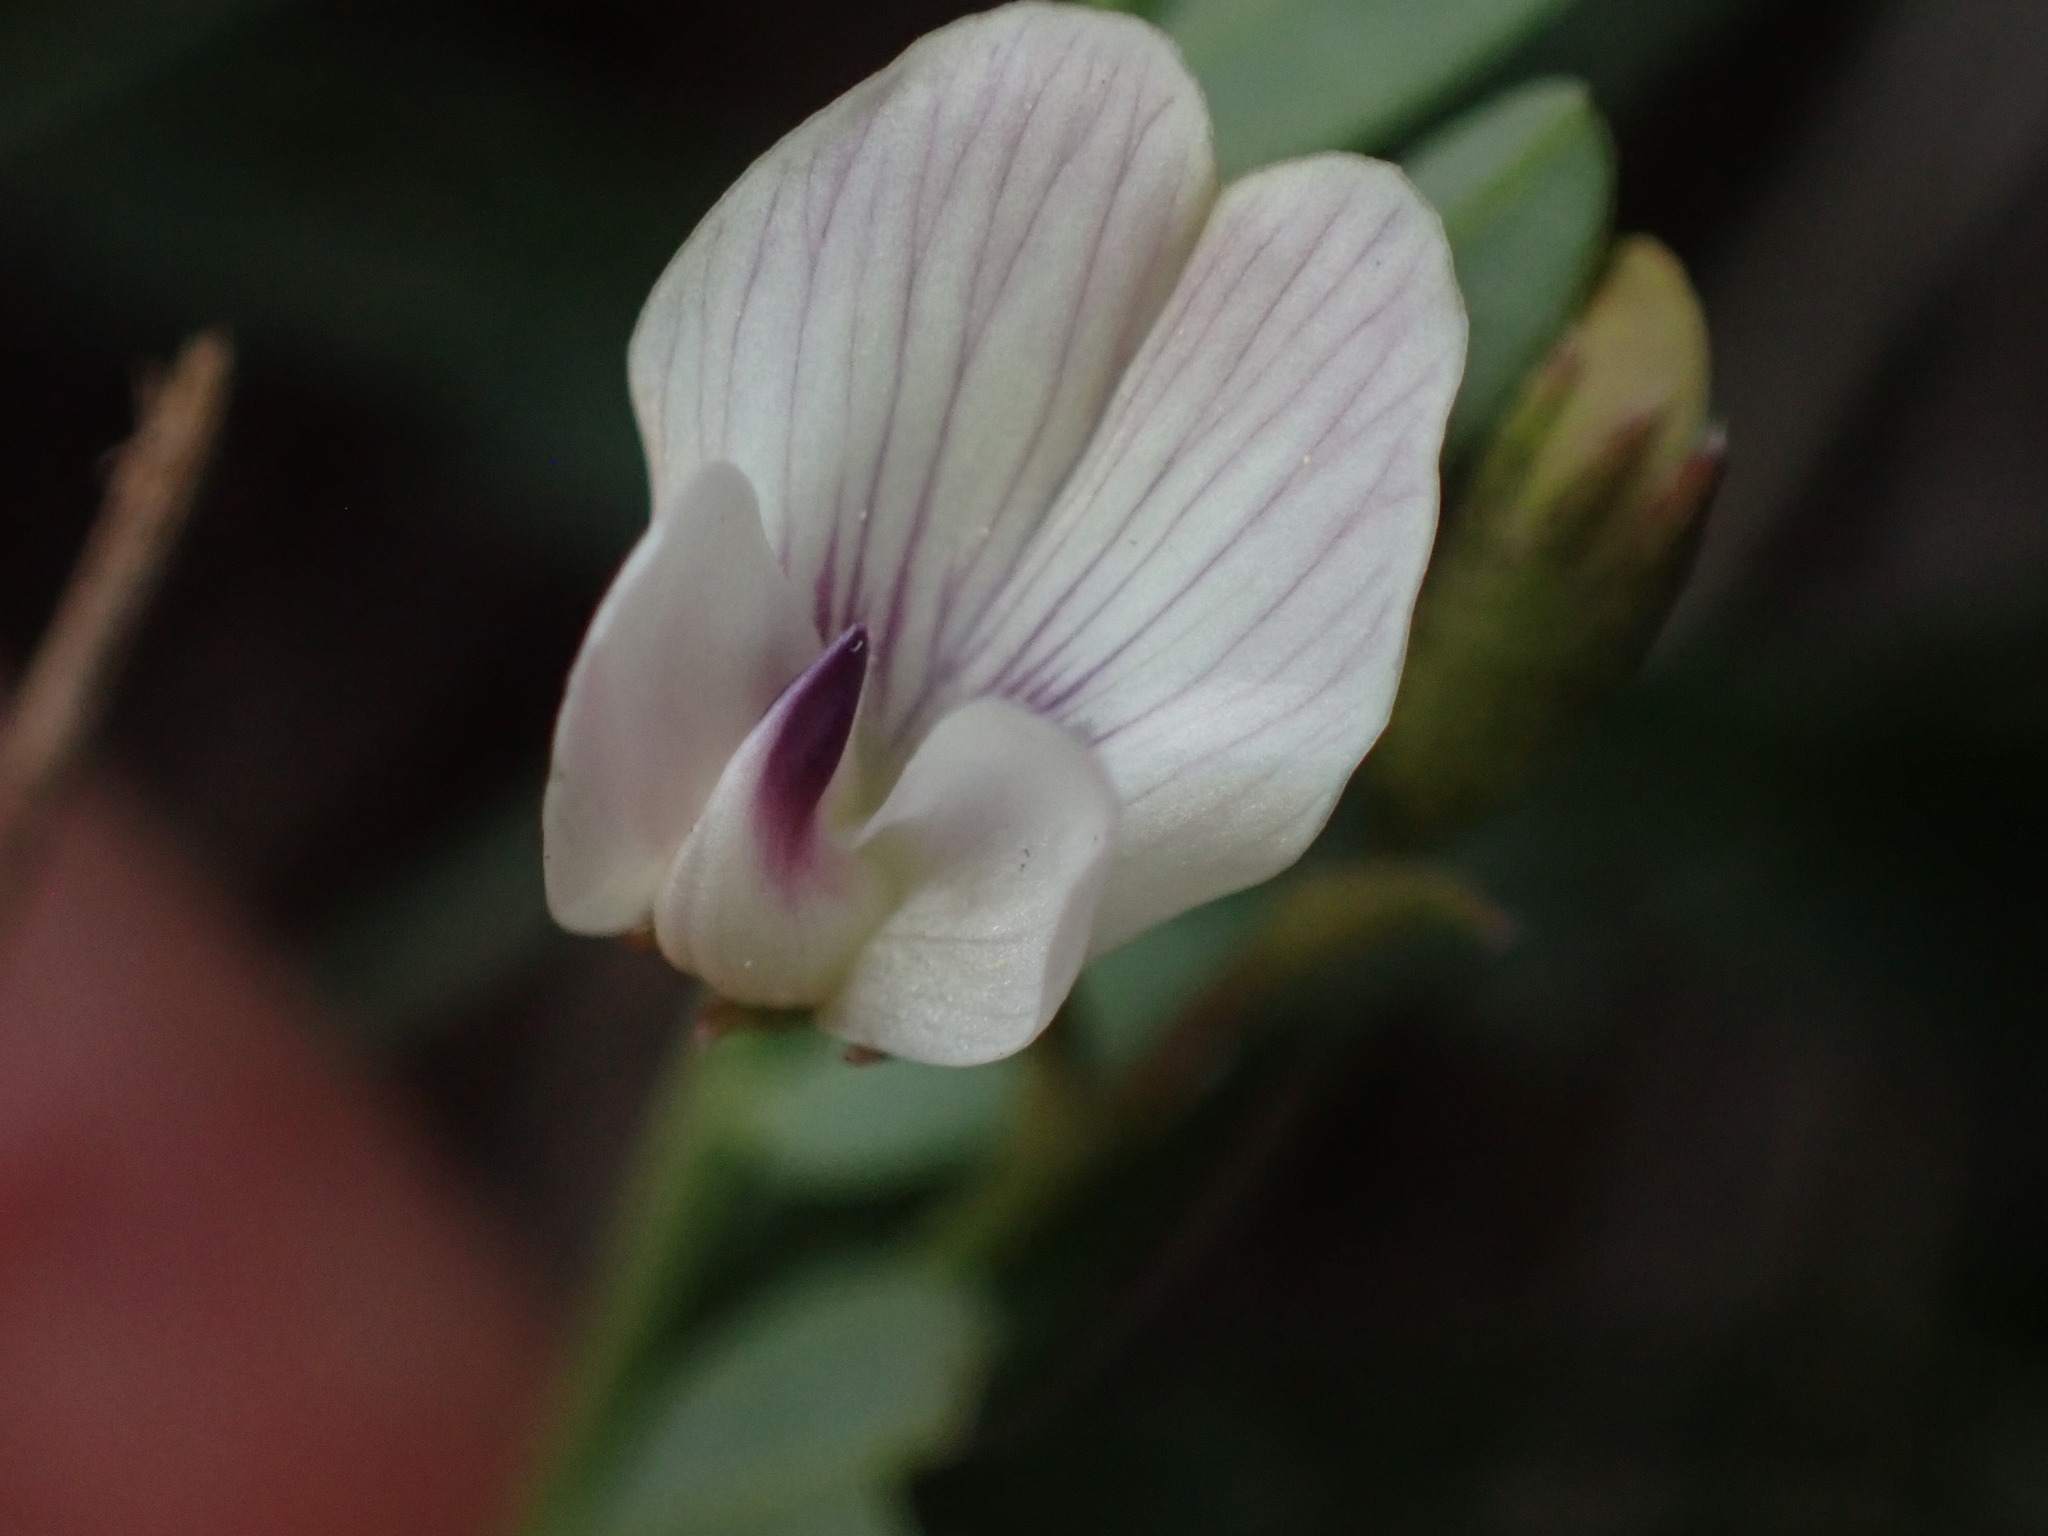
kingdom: Plantae
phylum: Tracheophyta
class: Magnoliopsida
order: Fabales
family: Fabaceae
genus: Astragalus
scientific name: Astragalus leptaleus
